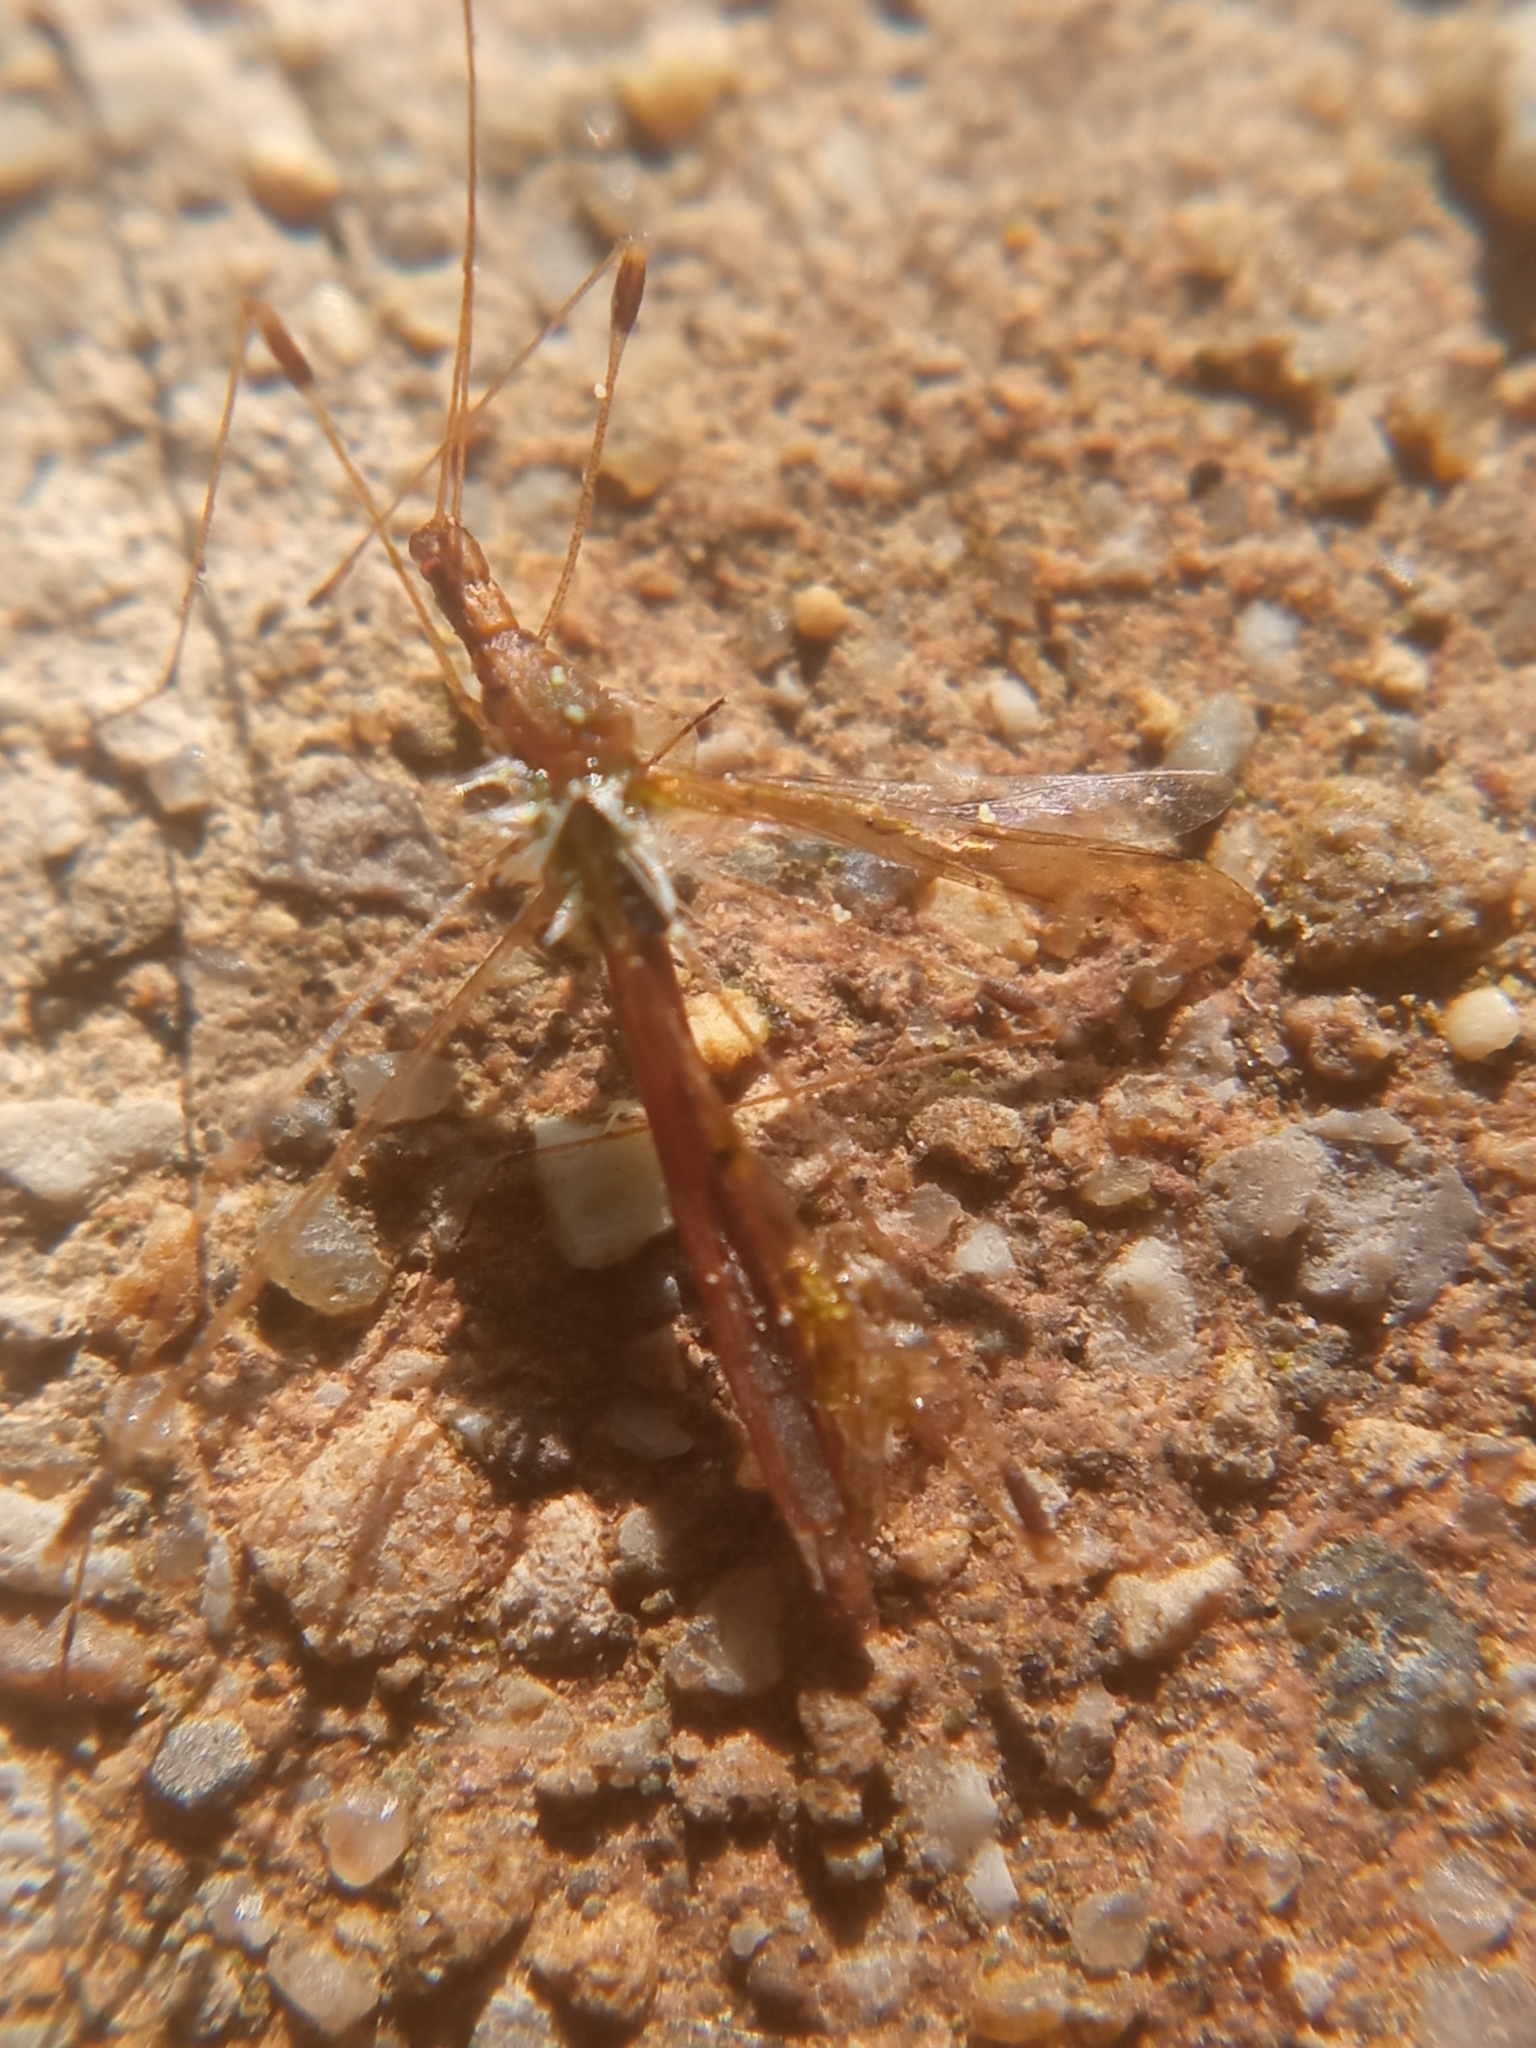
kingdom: Animalia
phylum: Arthropoda
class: Insecta
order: Hemiptera
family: Berytidae
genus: Metatropis
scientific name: Metatropis rufescens
